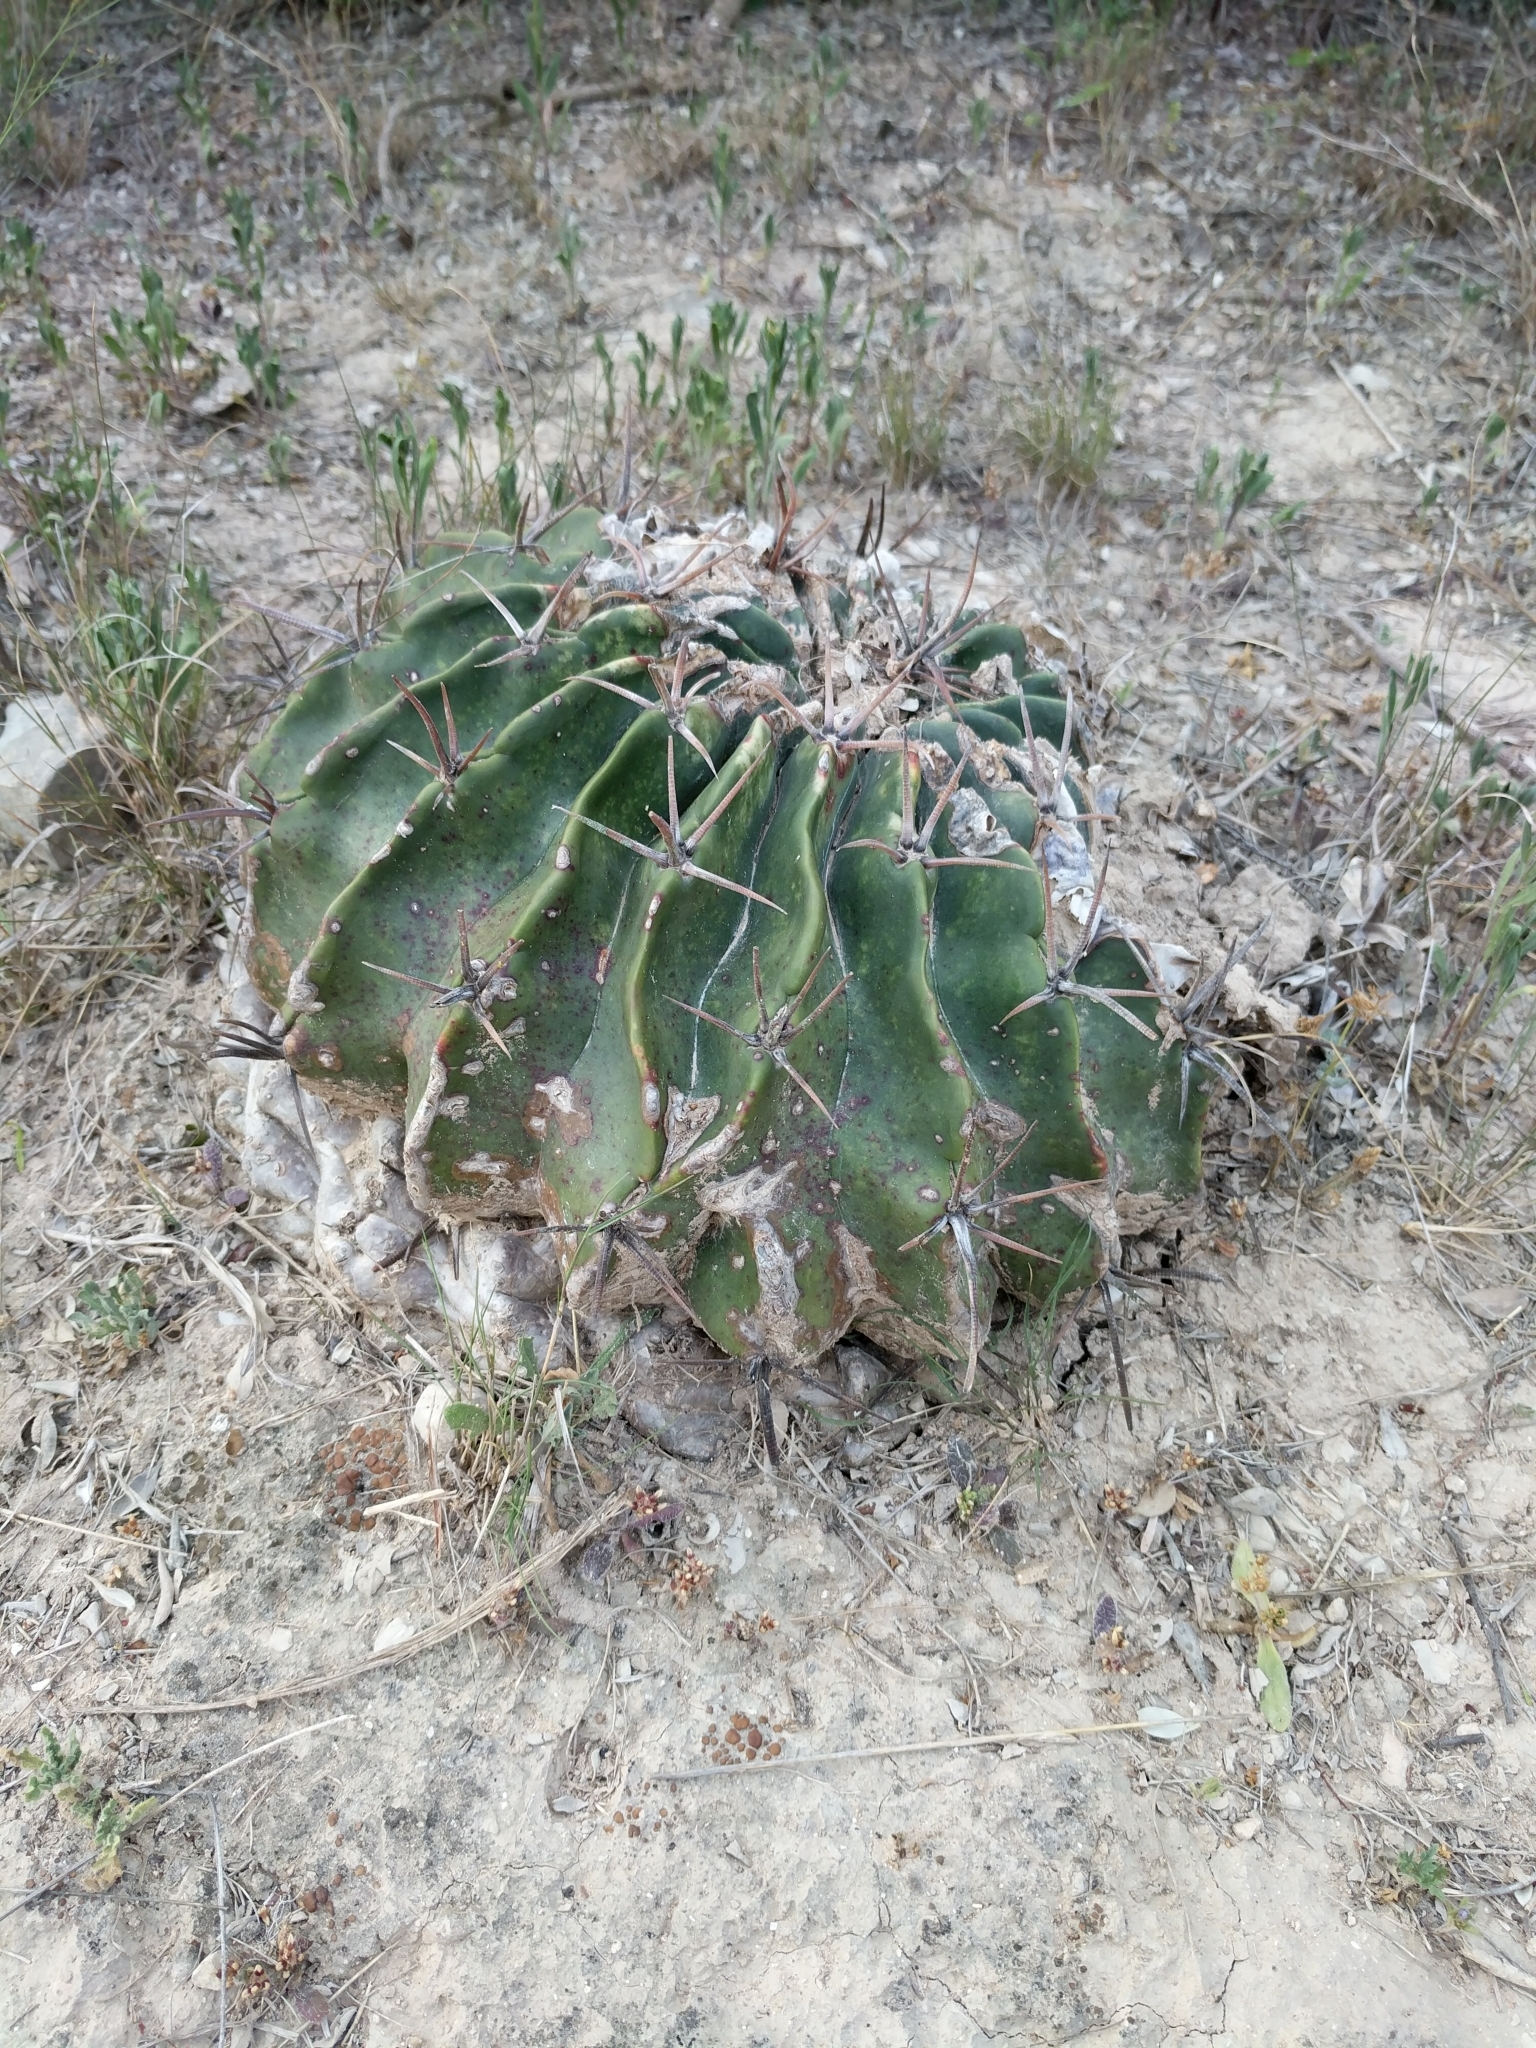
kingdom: Plantae
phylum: Tracheophyta
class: Magnoliopsida
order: Caryophyllales
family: Cactaceae
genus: Echinocactus
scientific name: Echinocactus texensis
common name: Devil's pincushion
